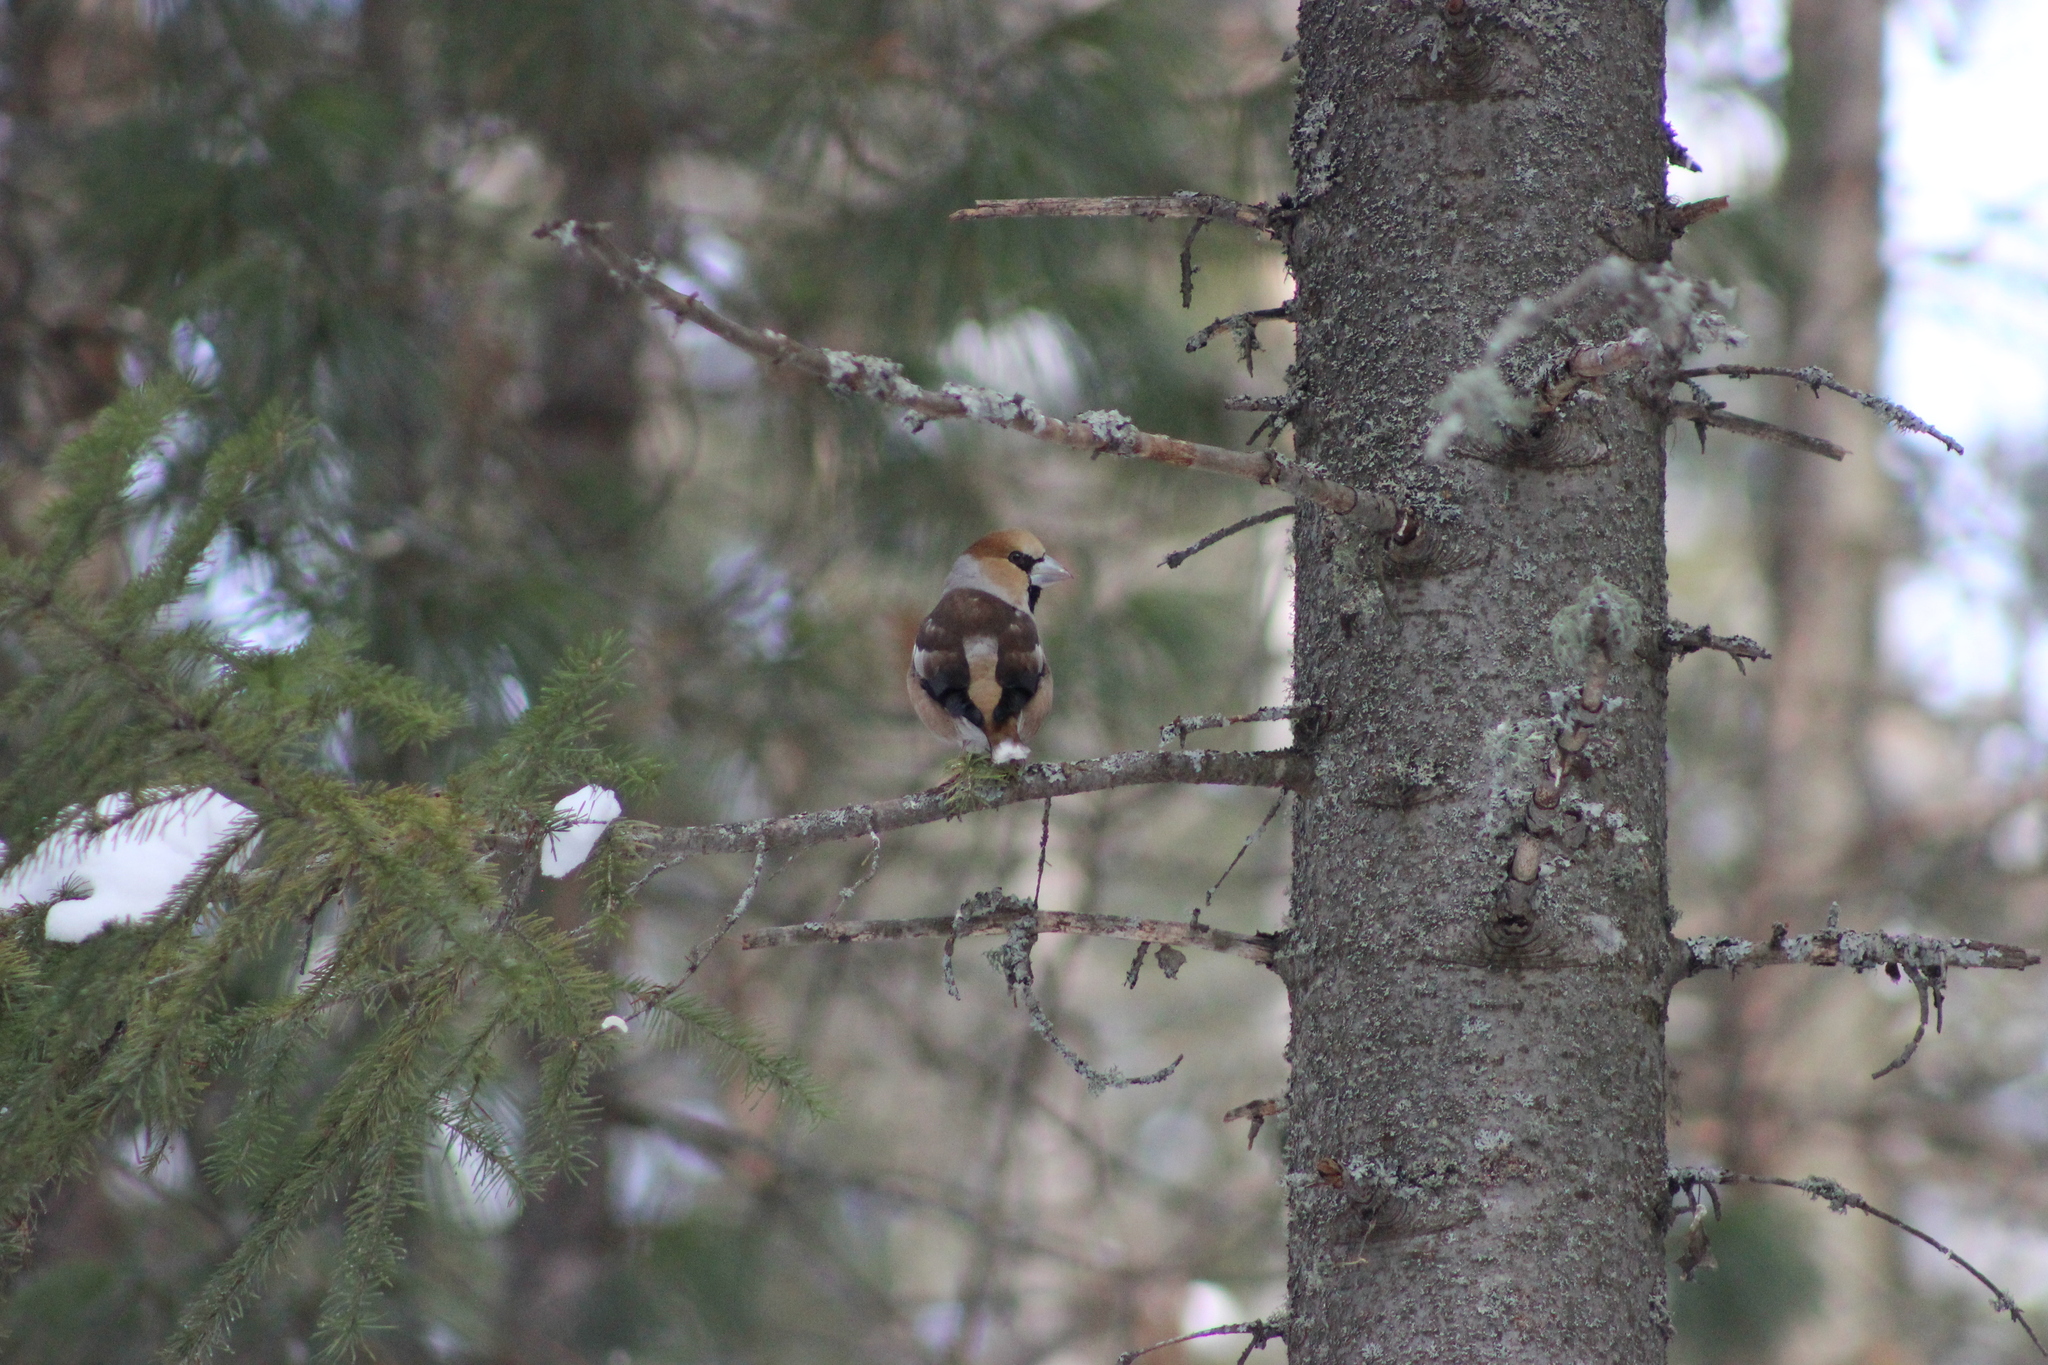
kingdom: Animalia
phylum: Chordata
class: Aves
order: Passeriformes
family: Fringillidae
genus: Coccothraustes
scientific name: Coccothraustes coccothraustes
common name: Hawfinch
